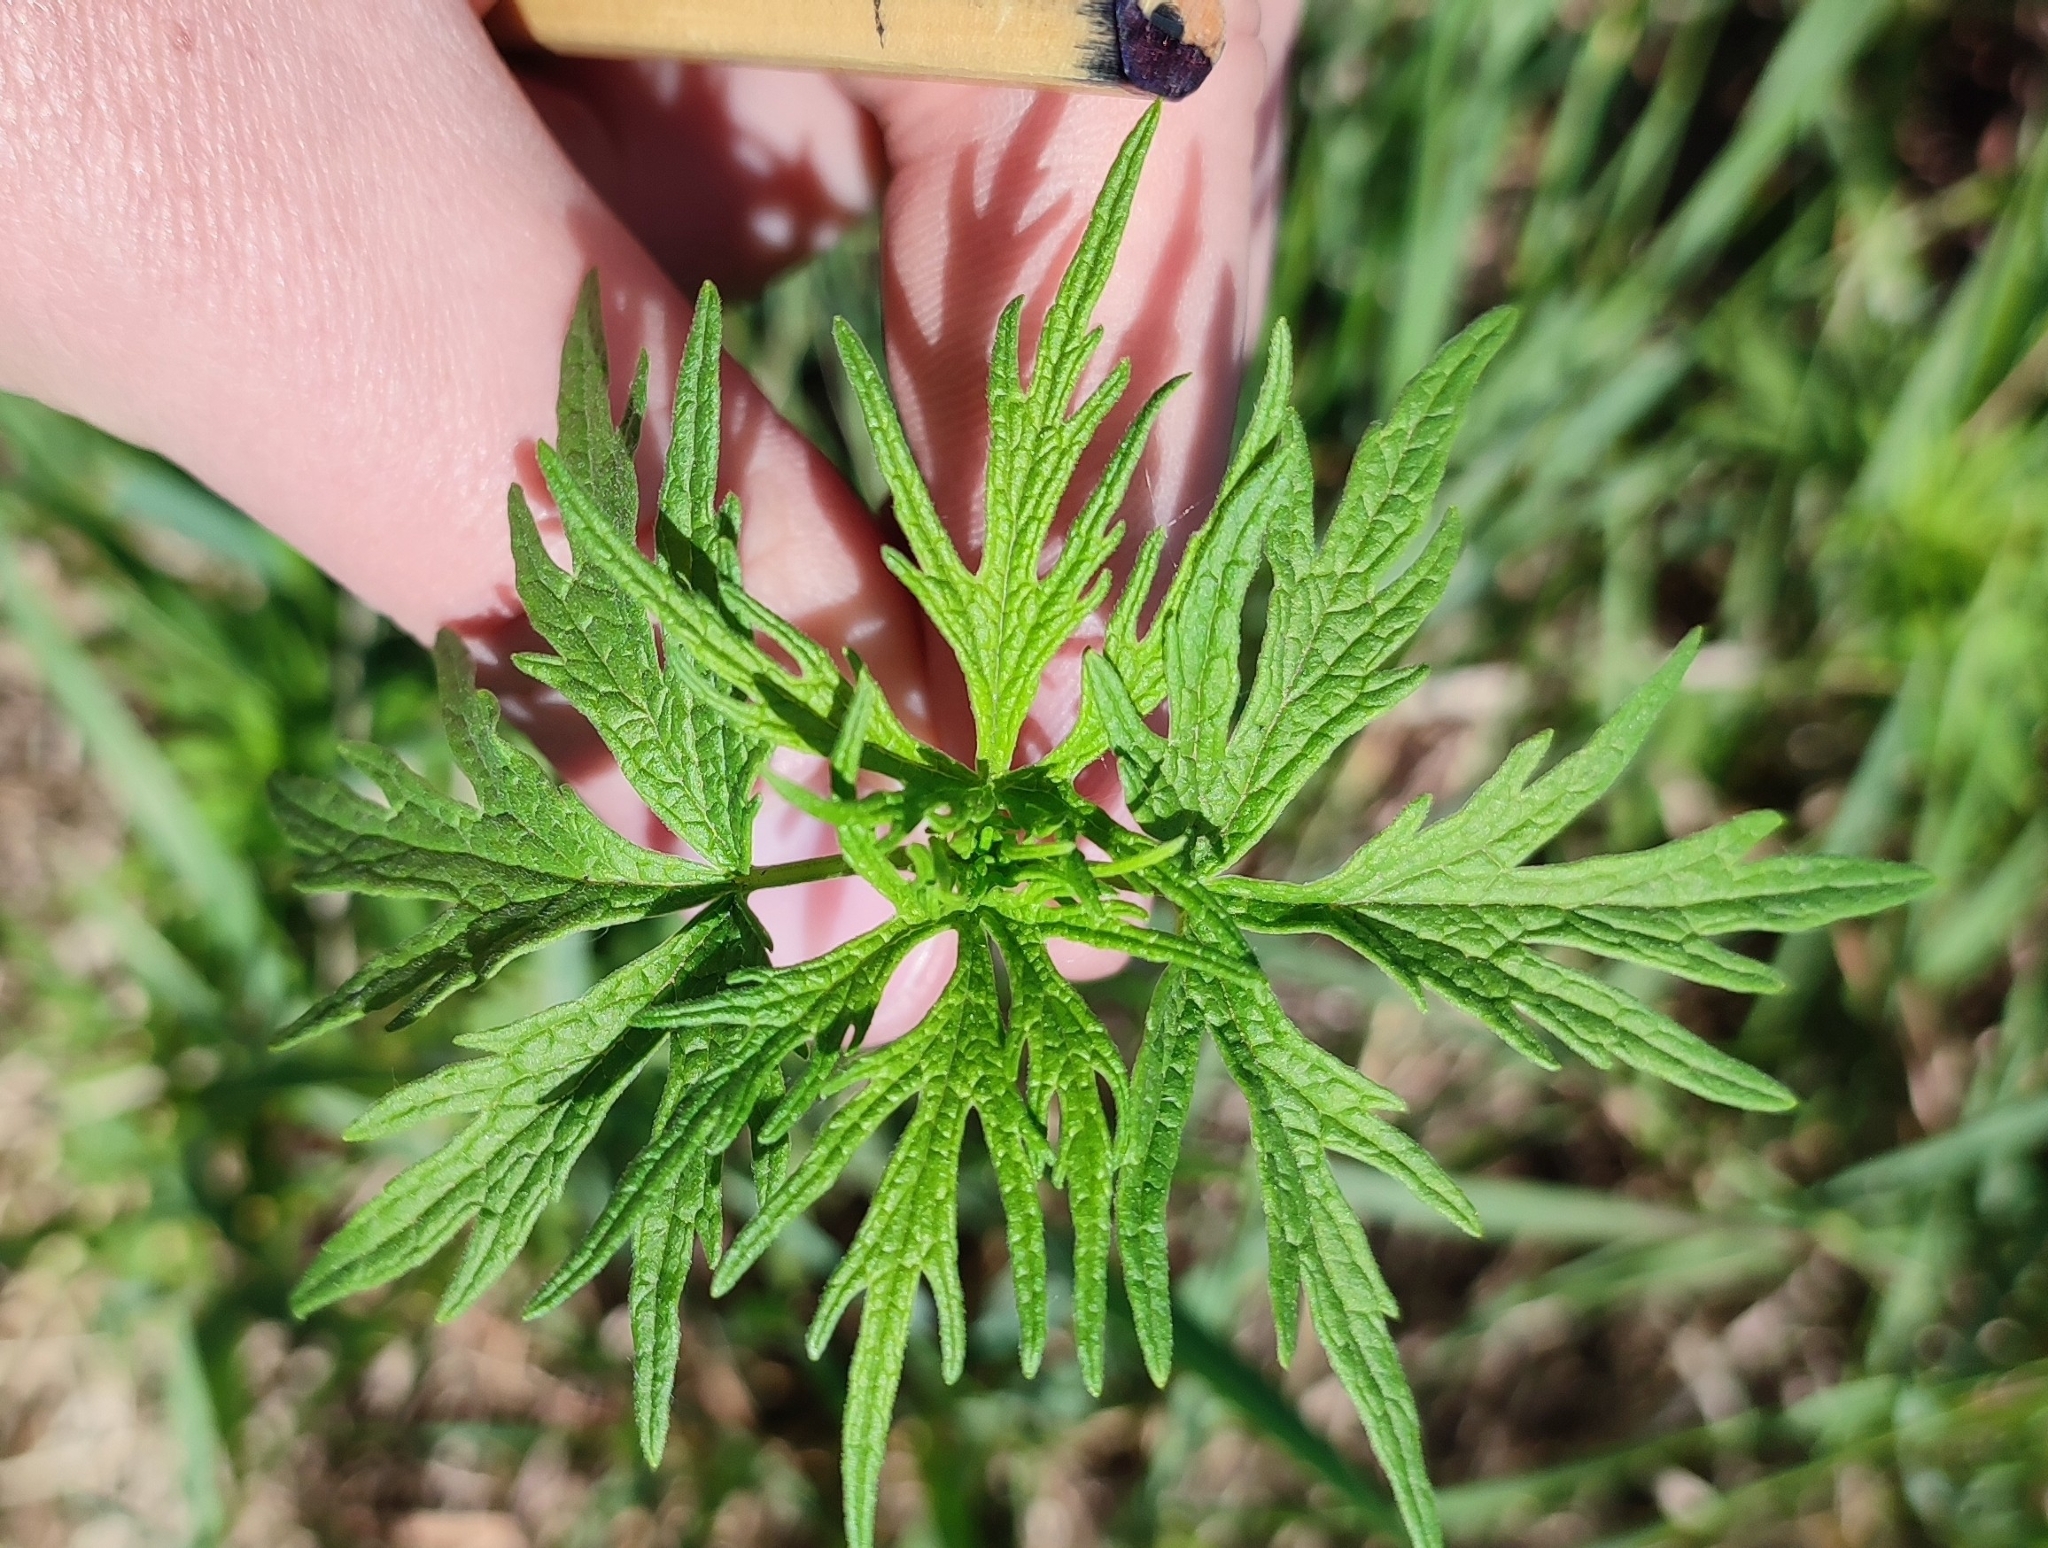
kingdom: Plantae
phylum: Tracheophyta
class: Magnoliopsida
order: Lamiales
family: Lamiaceae
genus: Leonurus
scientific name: Leonurus glaucescens
